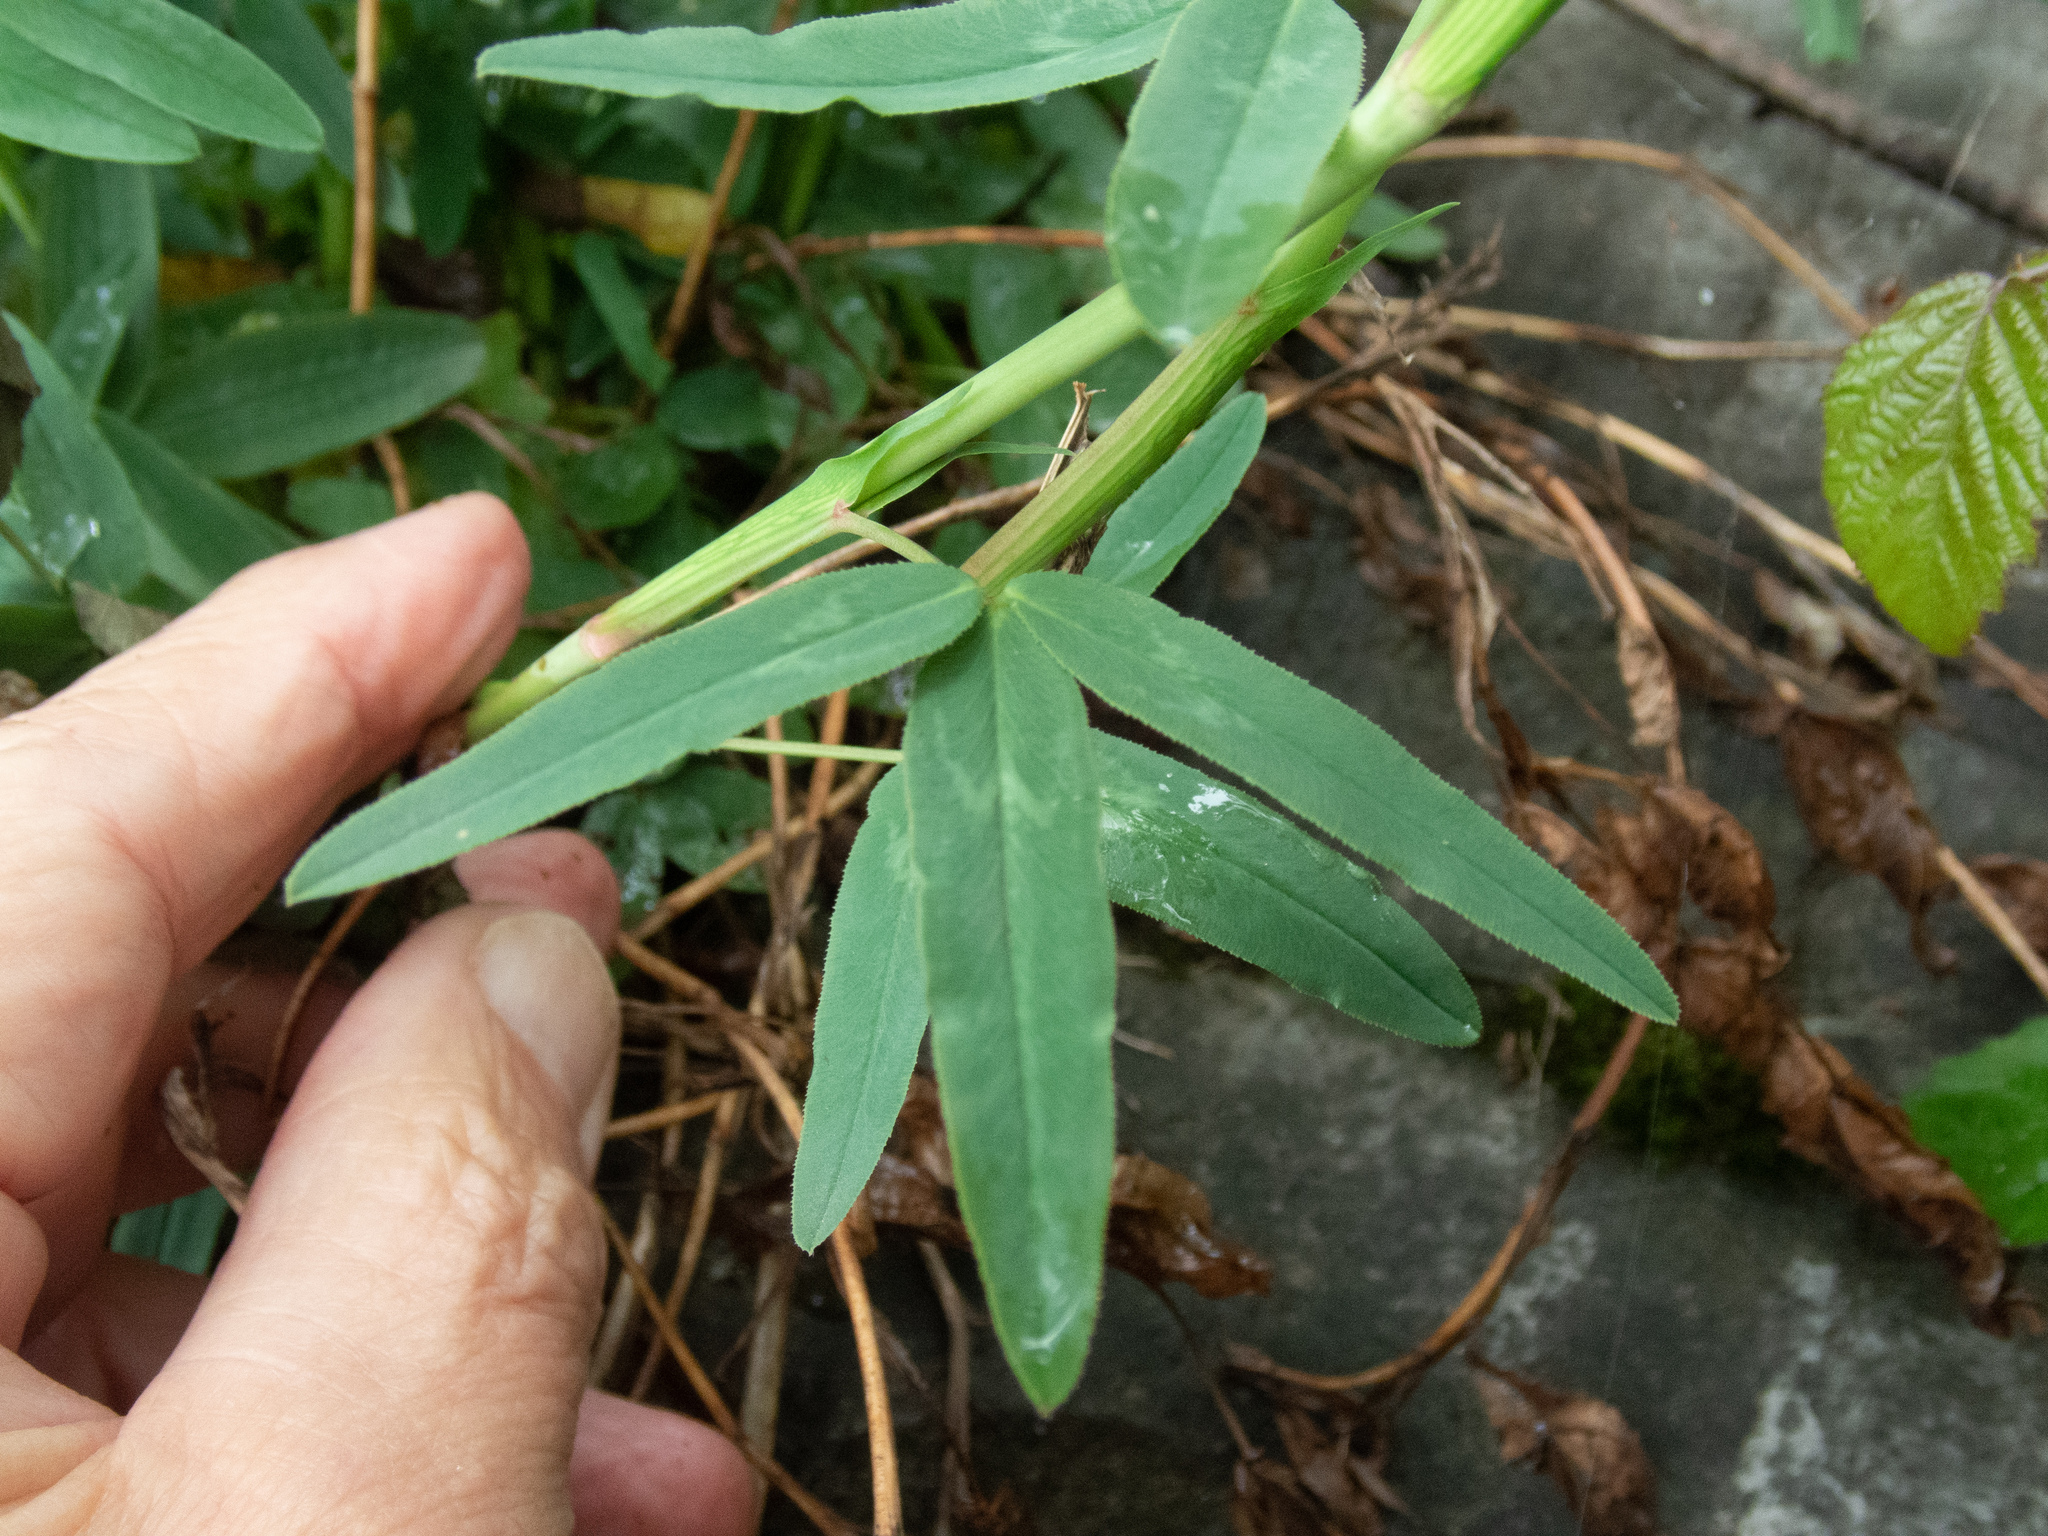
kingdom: Plantae
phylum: Tracheophyta
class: Magnoliopsida
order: Fabales
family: Fabaceae
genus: Trifolium
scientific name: Trifolium rubens
